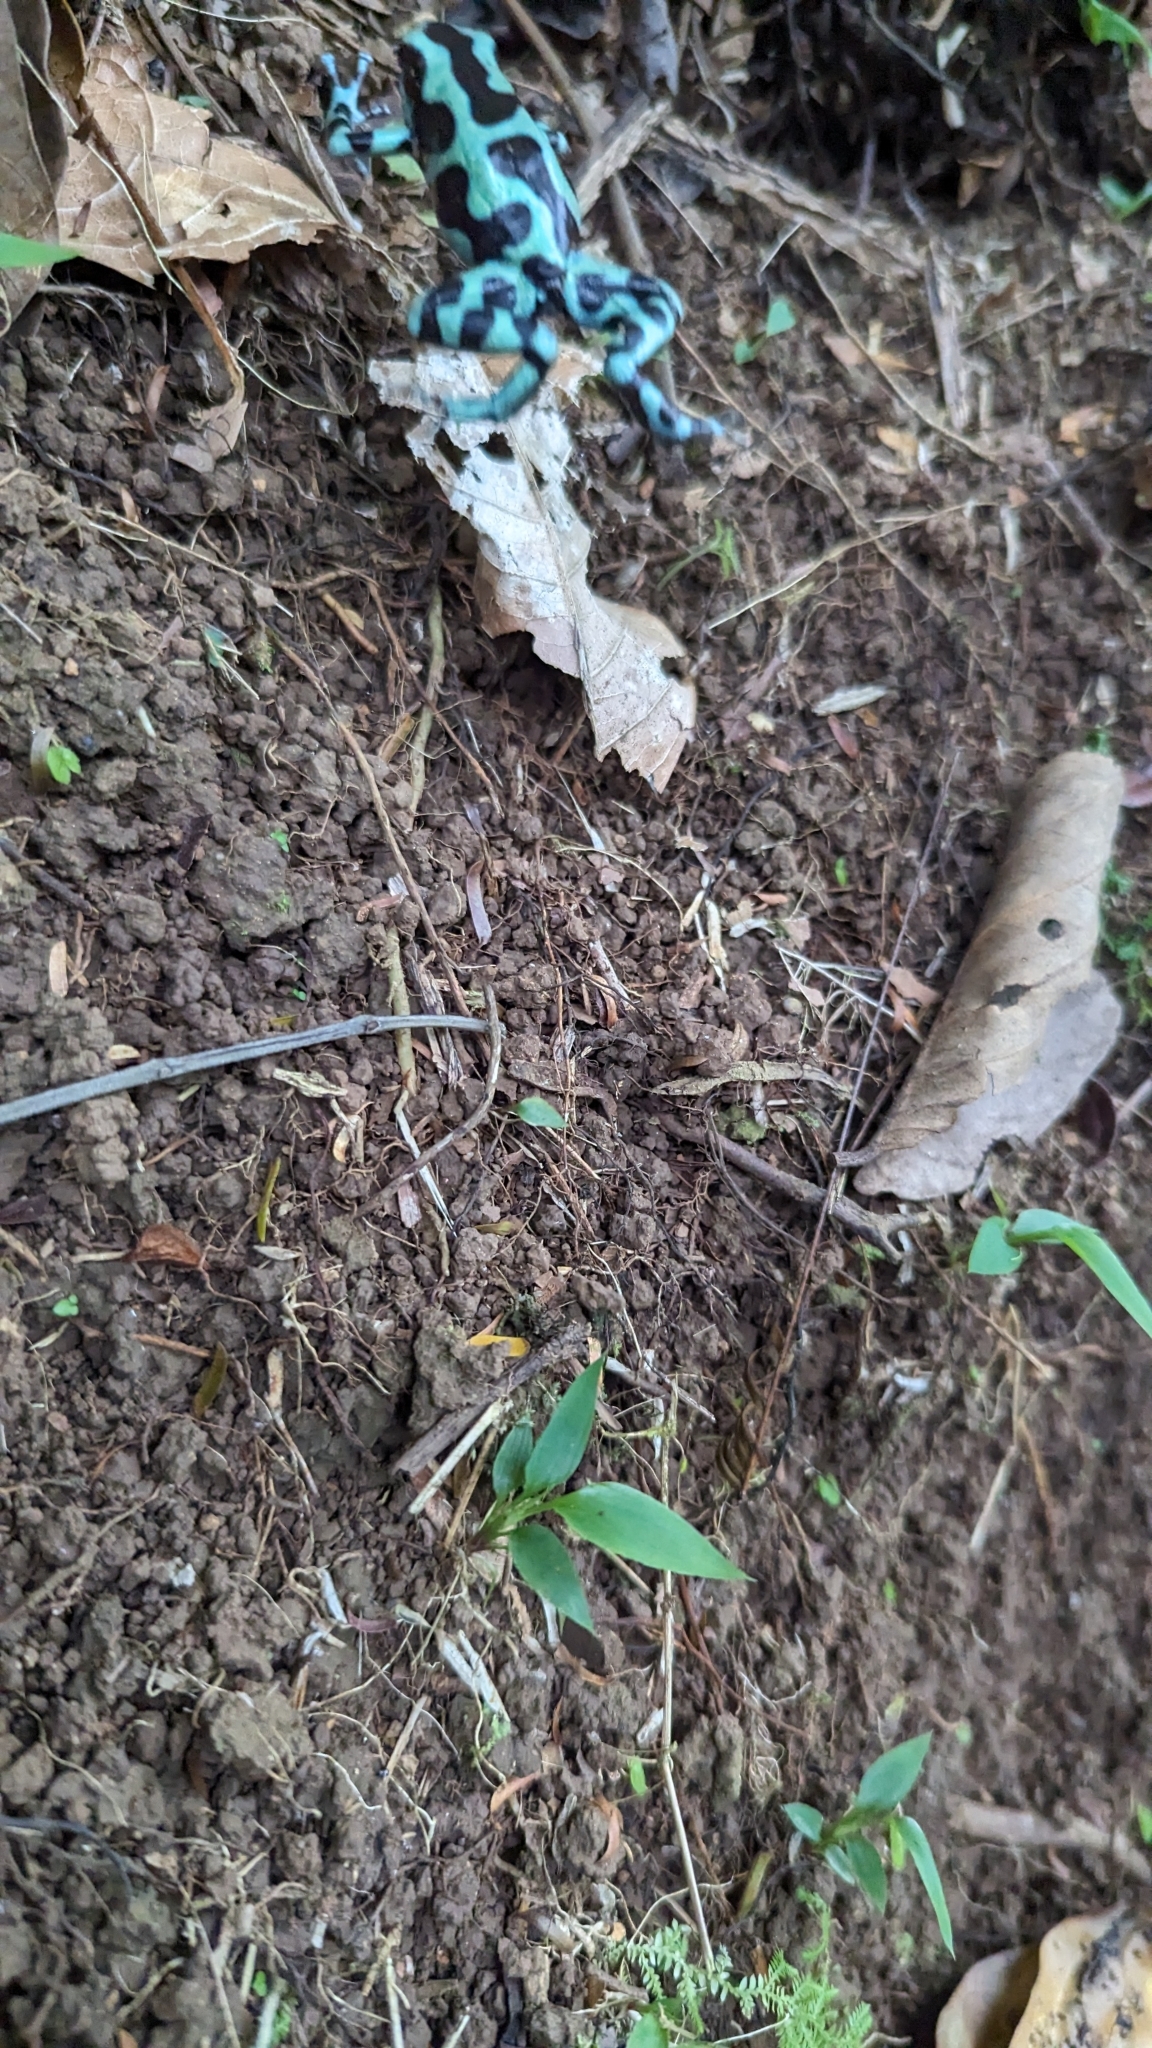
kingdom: Animalia
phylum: Chordata
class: Amphibia
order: Anura
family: Dendrobatidae
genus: Dendrobates
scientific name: Dendrobates auratus
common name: Green and black poison dart frog
